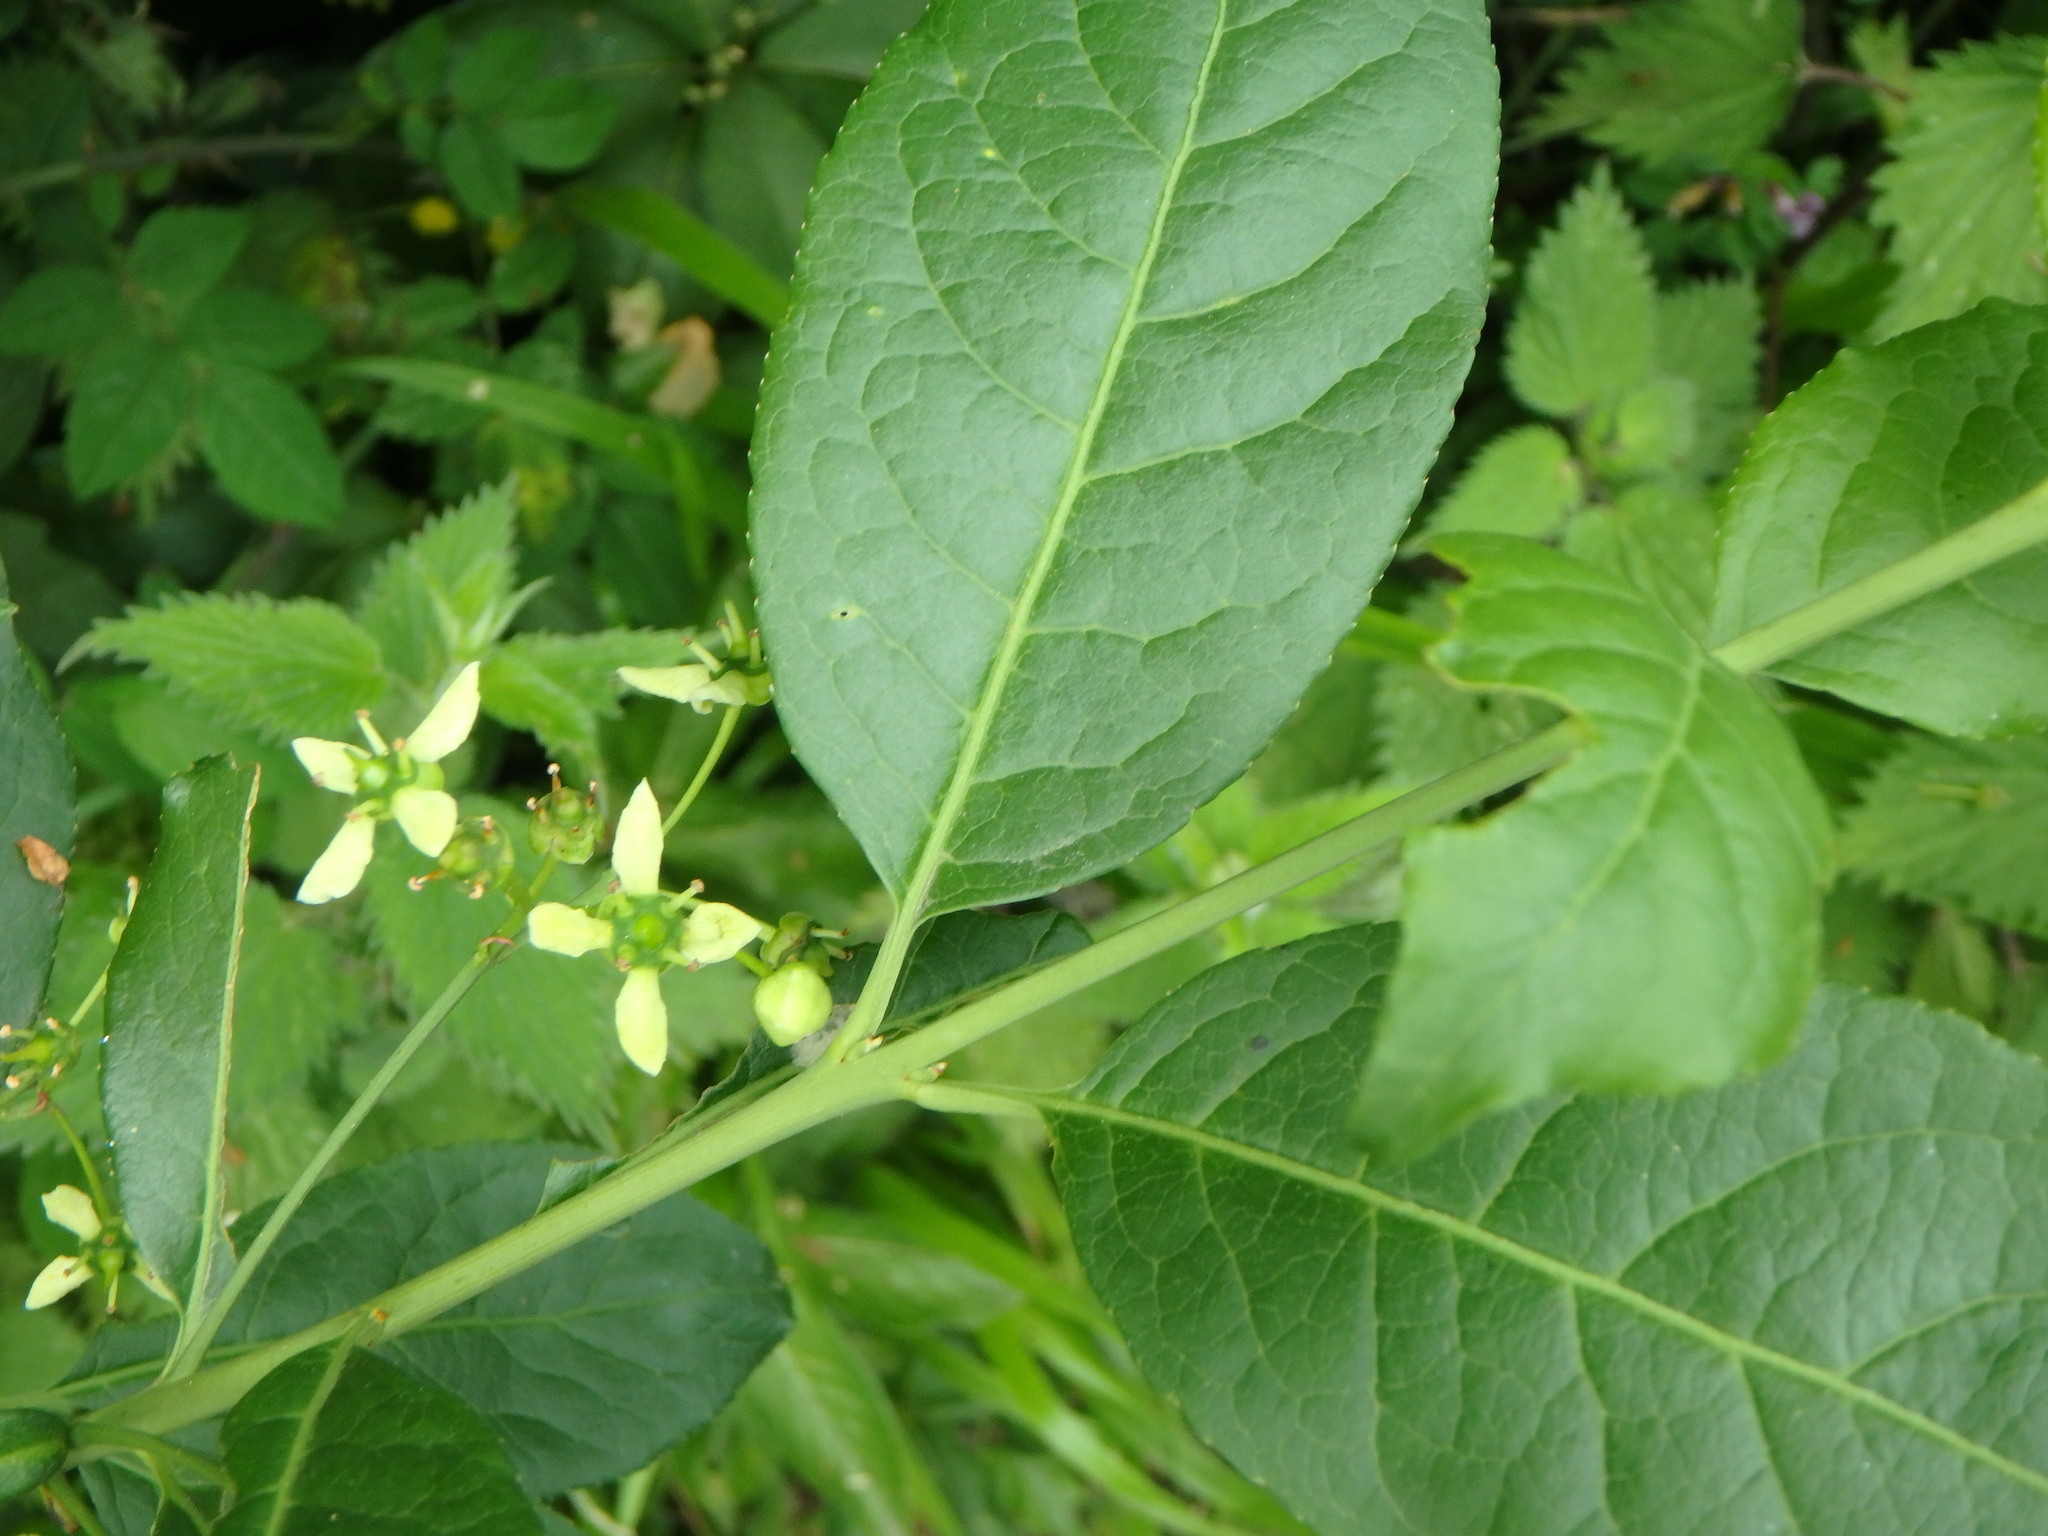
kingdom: Plantae
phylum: Tracheophyta
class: Magnoliopsida
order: Celastrales
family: Celastraceae
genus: Euonymus
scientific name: Euonymus europaeus
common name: Spindle
